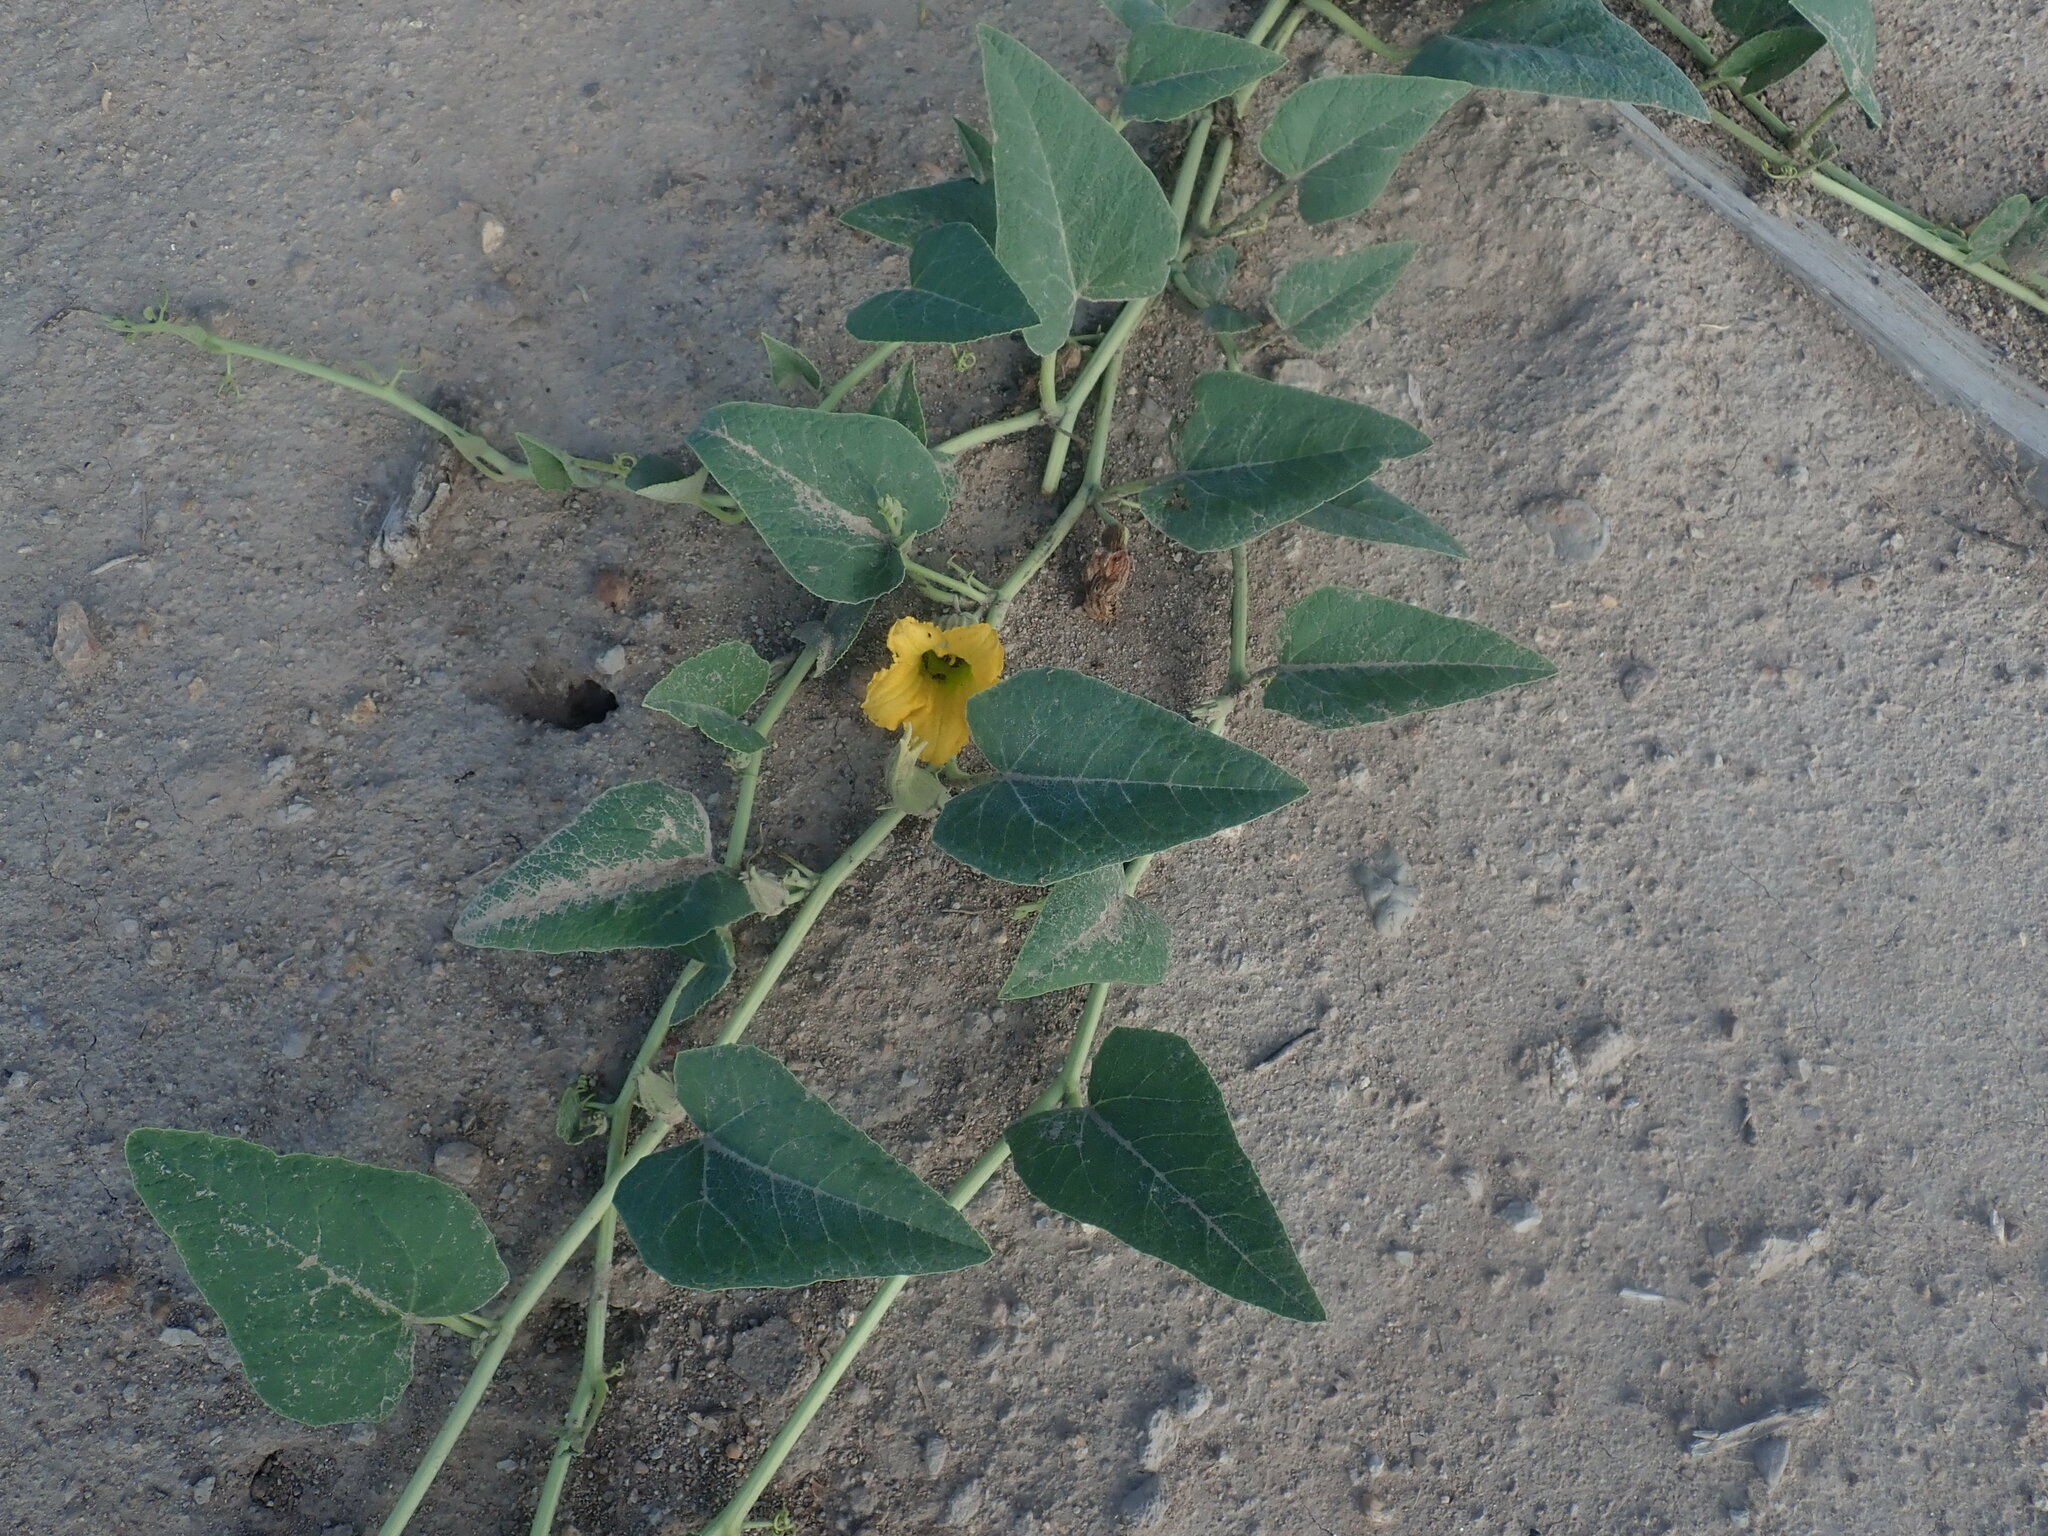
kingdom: Plantae
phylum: Tracheophyta
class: Magnoliopsida
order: Cucurbitales
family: Cucurbitaceae
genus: Cucurbita
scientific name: Cucurbita foetidissima
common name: Buffalo gourd
